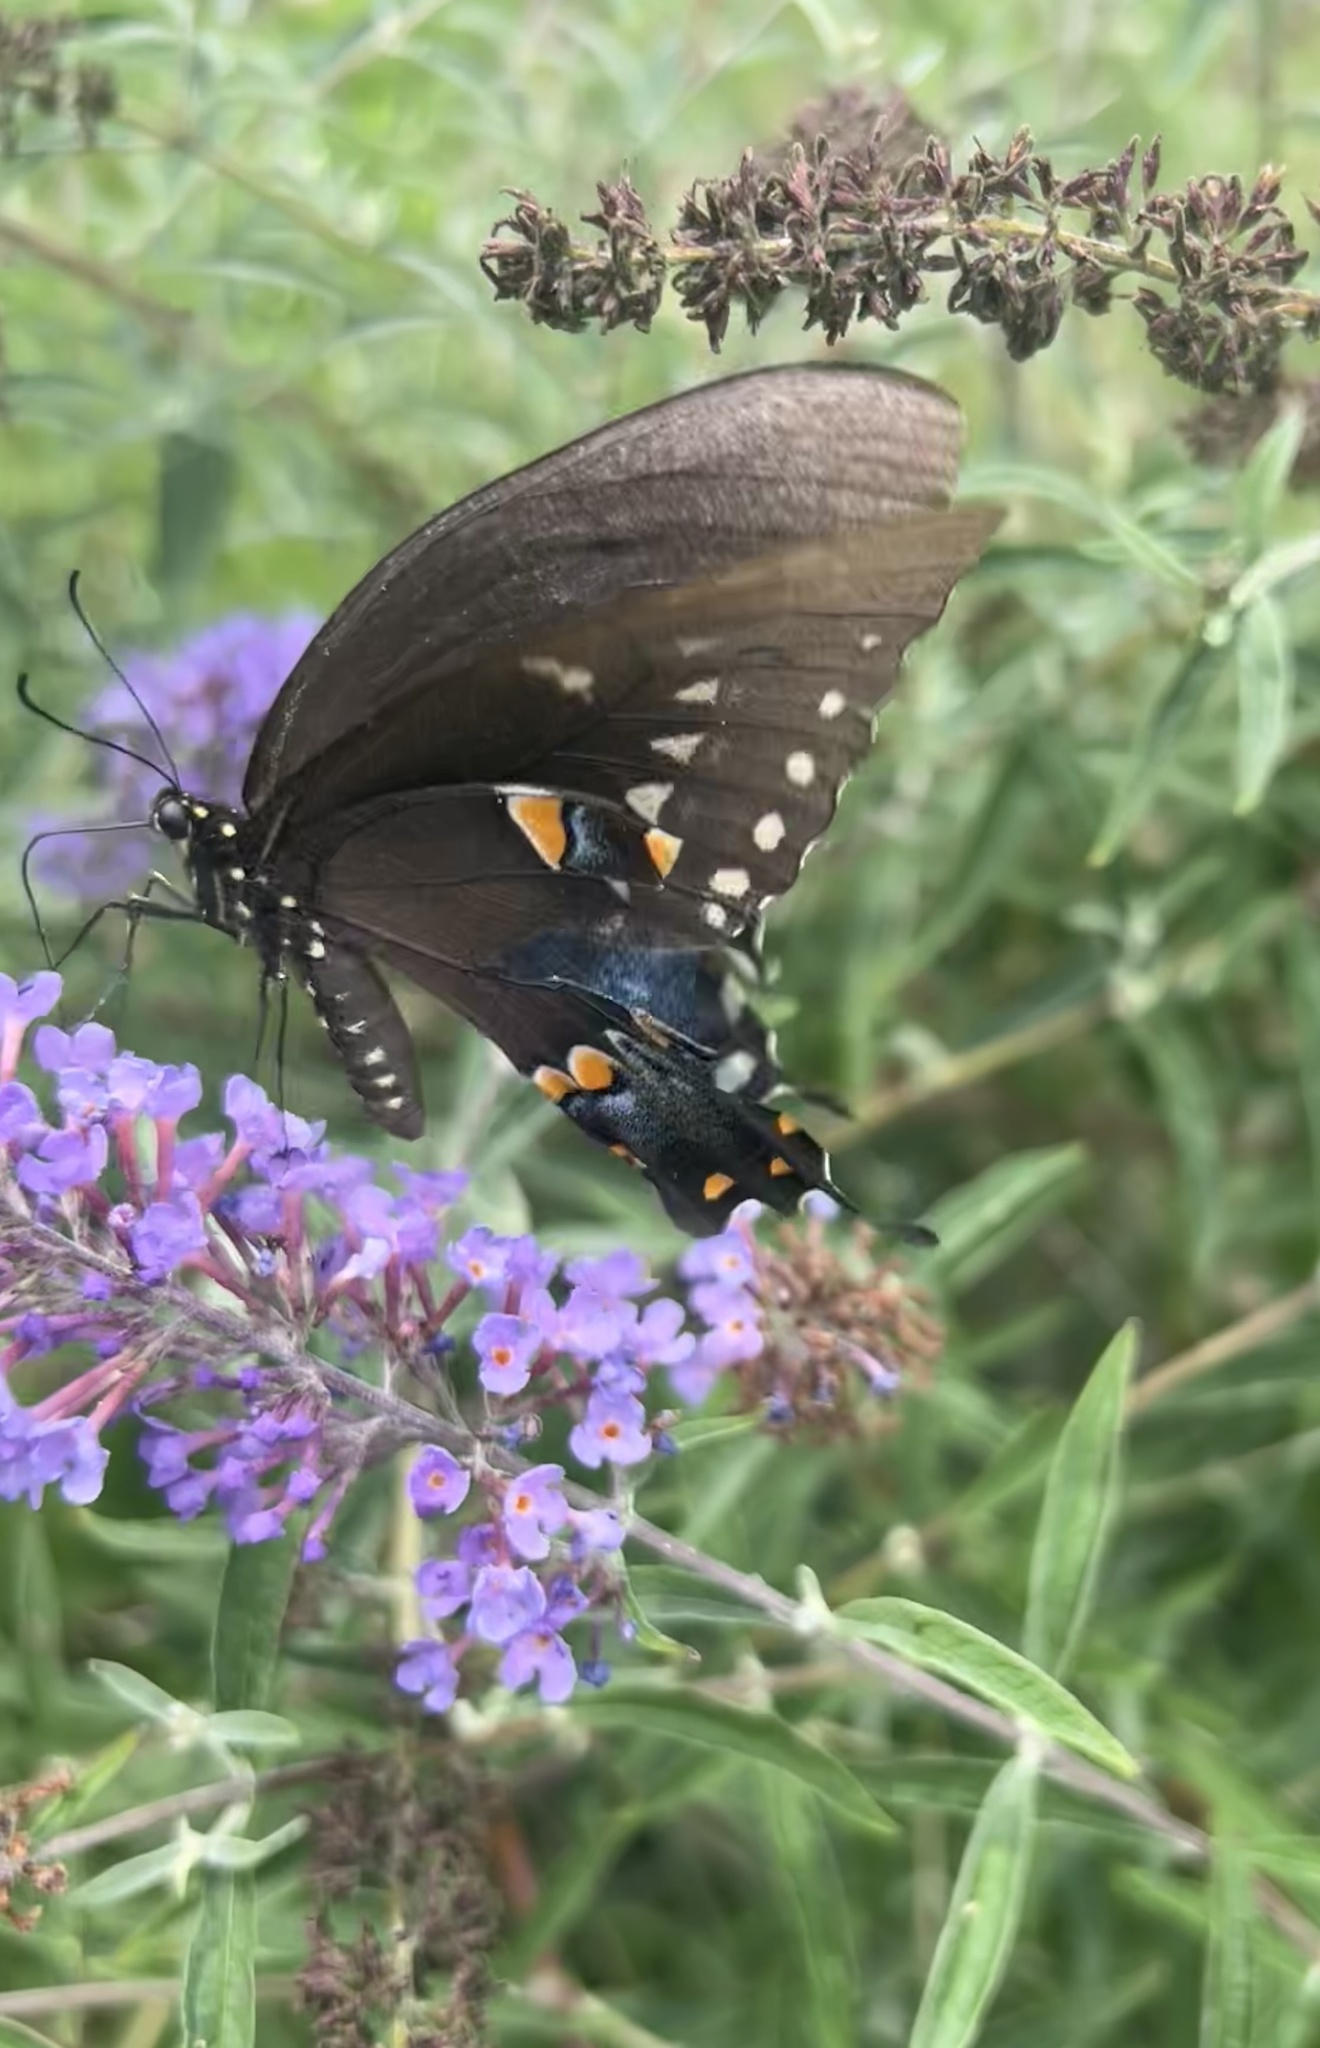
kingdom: Animalia
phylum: Arthropoda
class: Insecta
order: Lepidoptera
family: Papilionidae
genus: Papilio
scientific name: Papilio troilus
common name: Spicebush swallowtail
